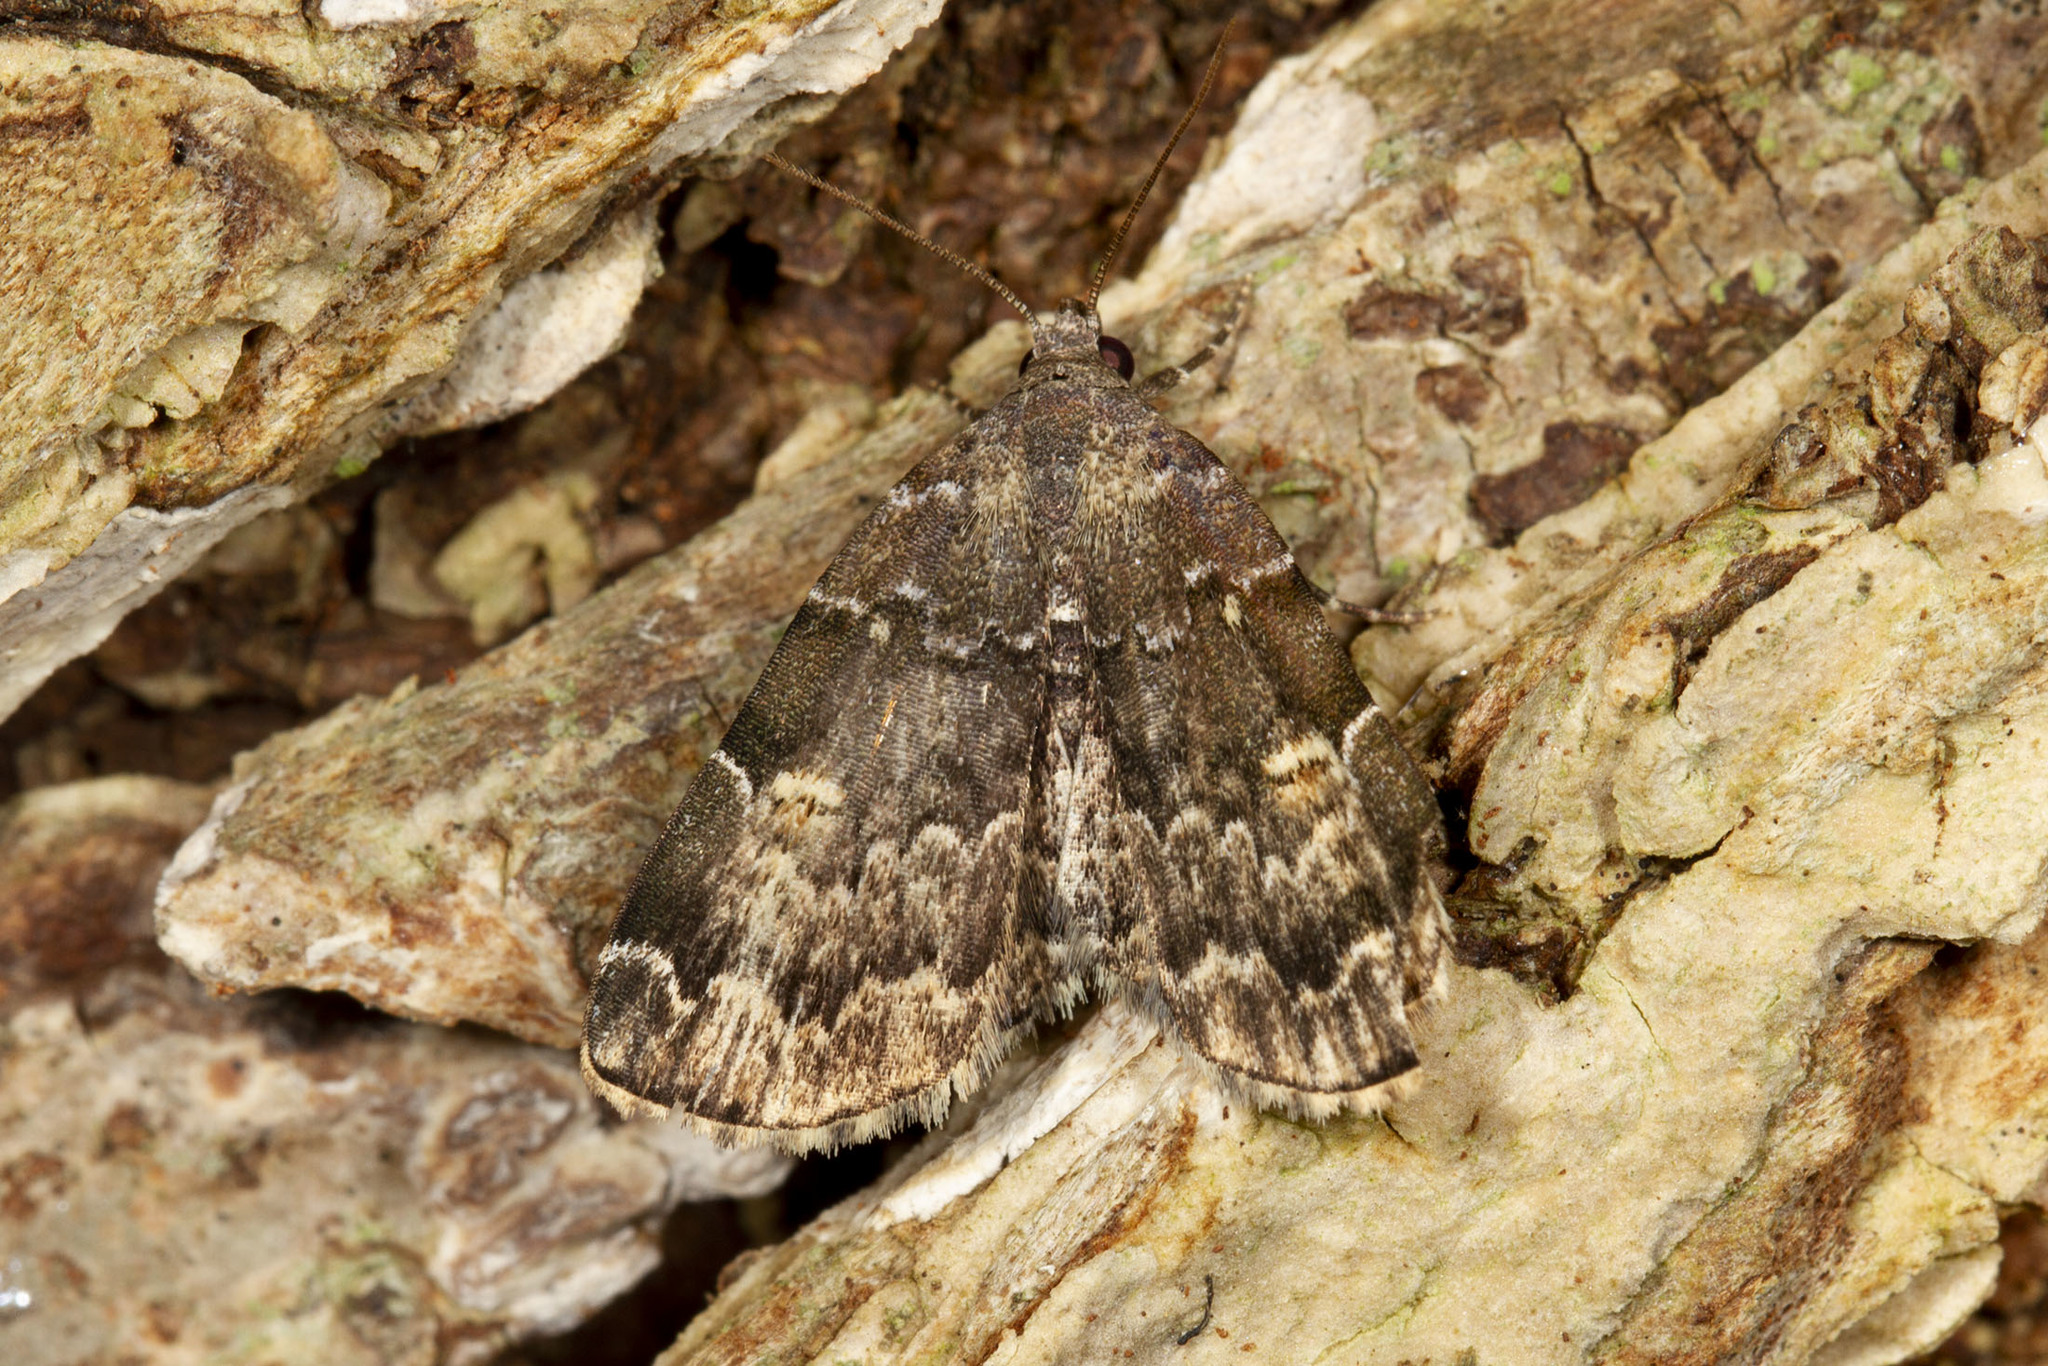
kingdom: Animalia
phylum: Arthropoda
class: Insecta
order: Lepidoptera
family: Erebidae
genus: Idia
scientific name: Idia americalis
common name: American idia moth
